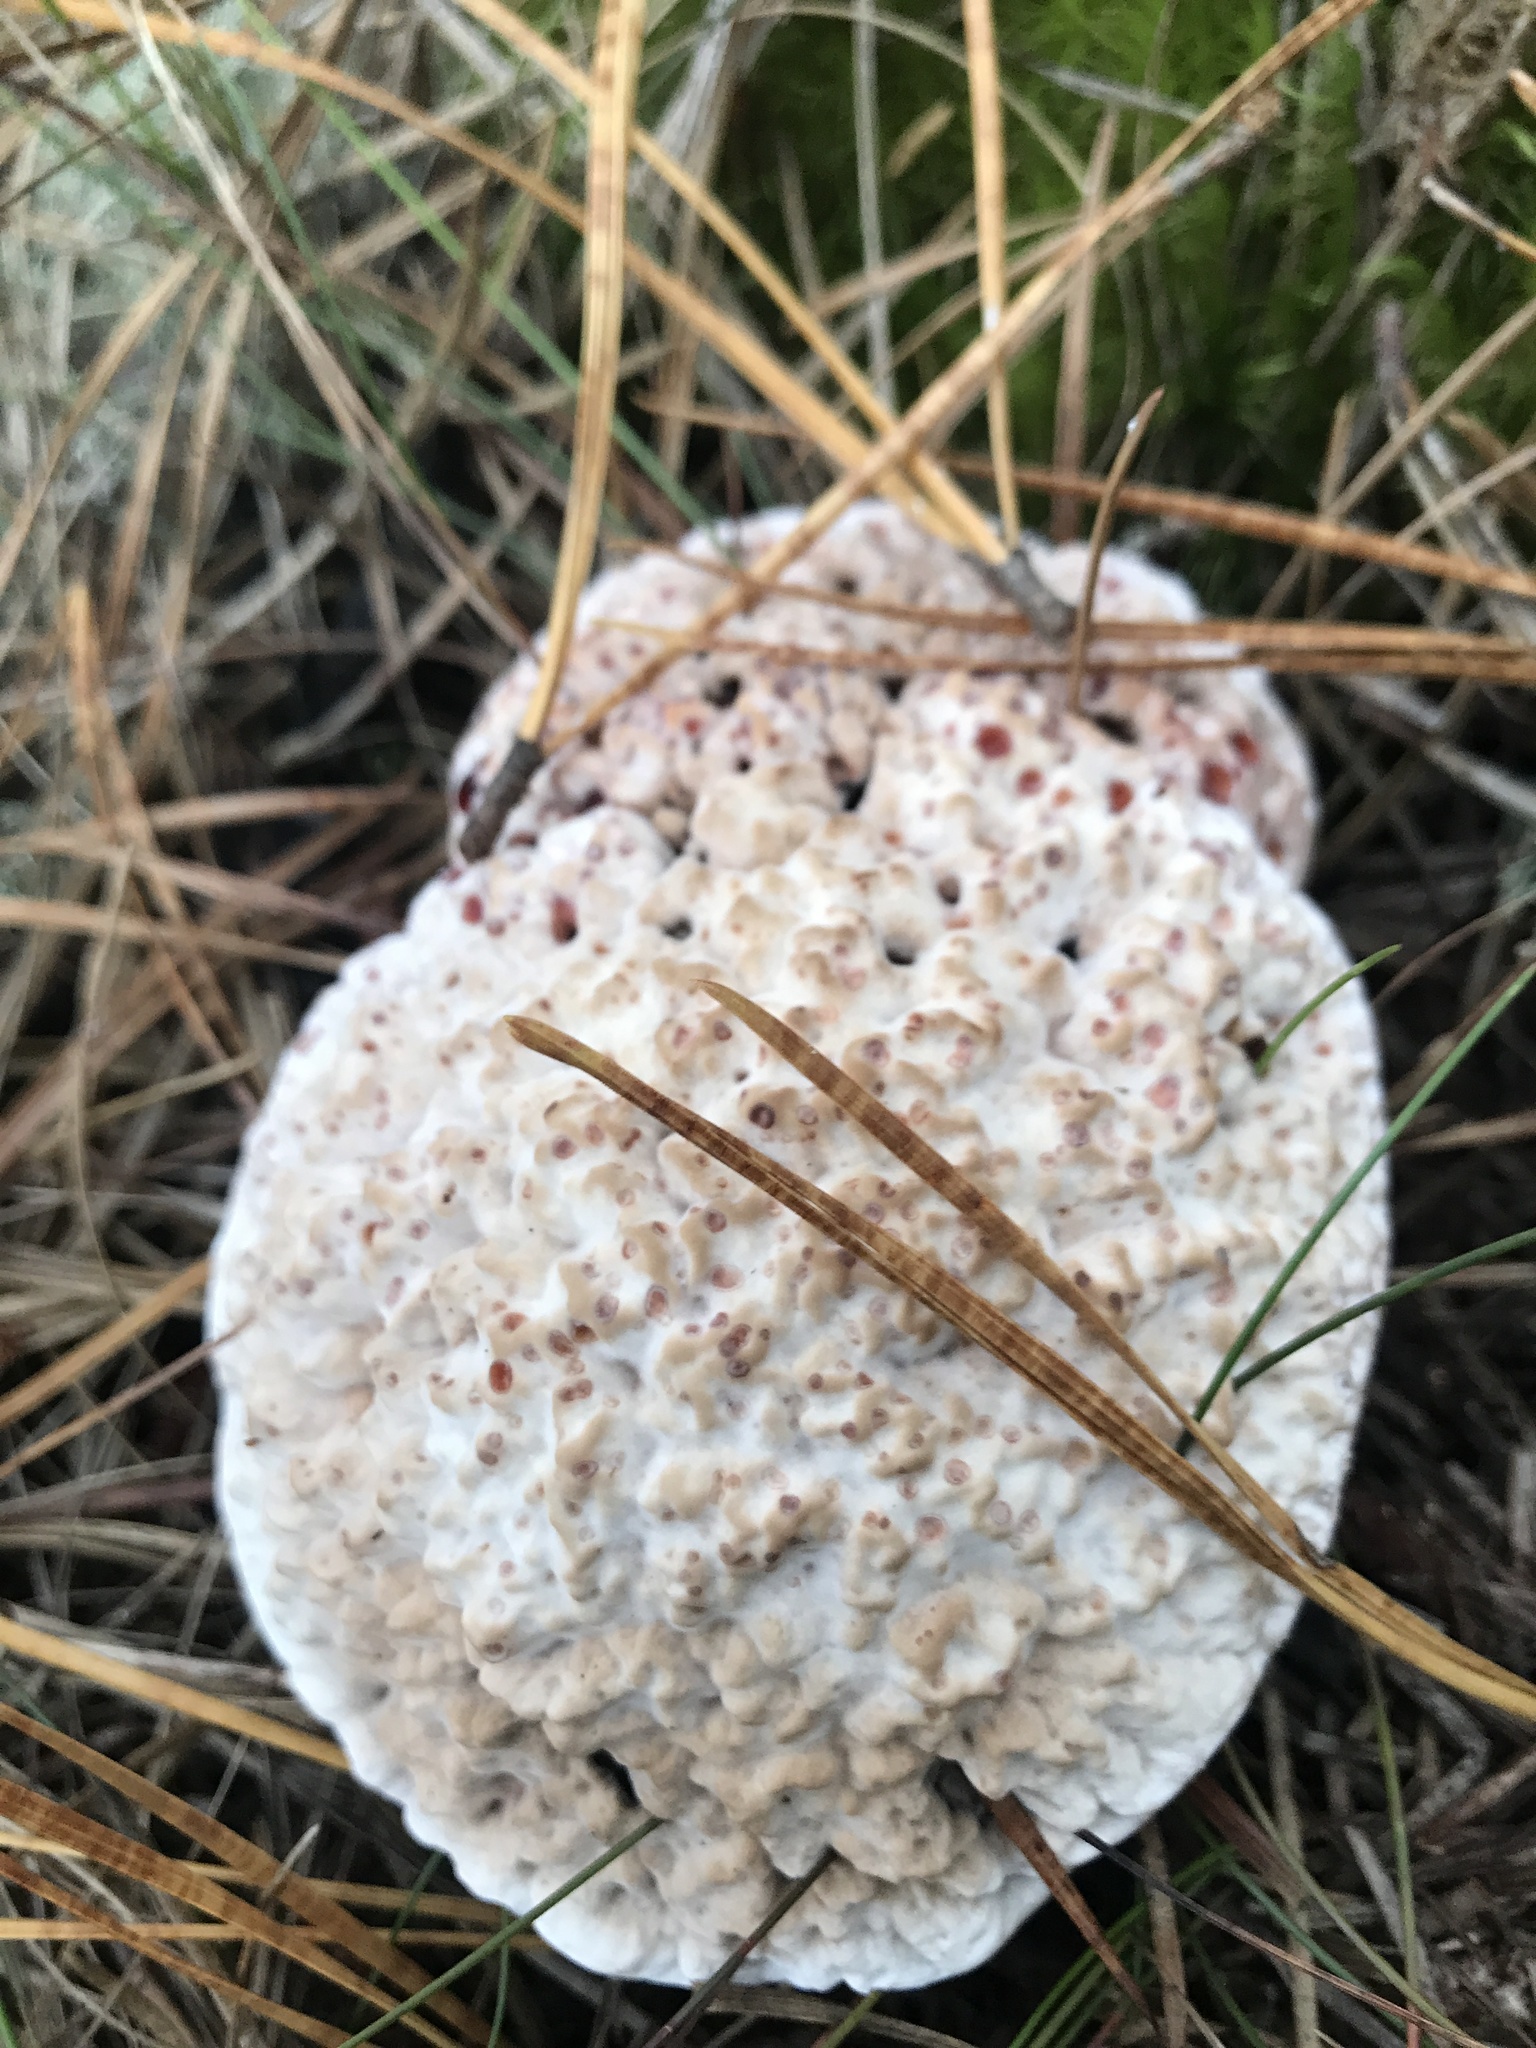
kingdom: Fungi
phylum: Basidiomycota
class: Agaricomycetes
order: Thelephorales
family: Bankeraceae
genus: Hydnellum
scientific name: Hydnellum peckii
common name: Devil's tooth
